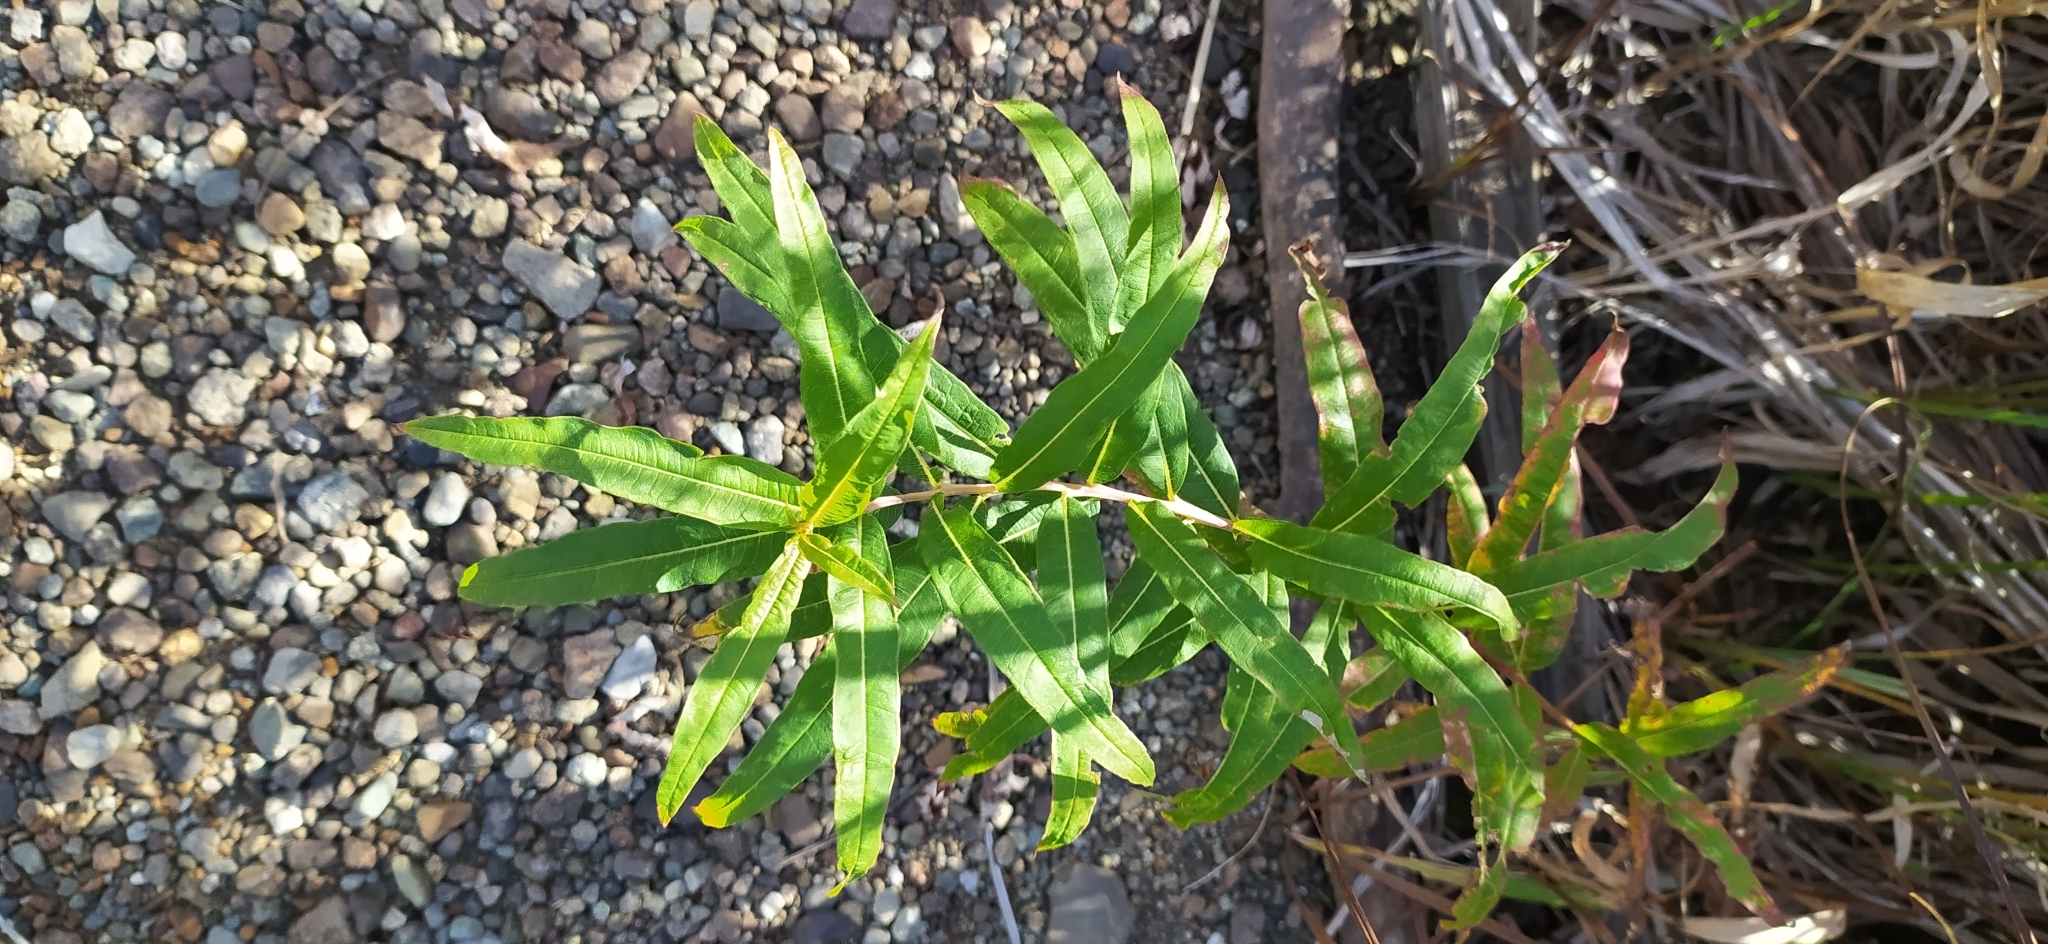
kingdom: Plantae
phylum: Tracheophyta
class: Magnoliopsida
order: Myrtales
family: Onagraceae
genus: Chamaenerion
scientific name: Chamaenerion angustifolium
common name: Fireweed
